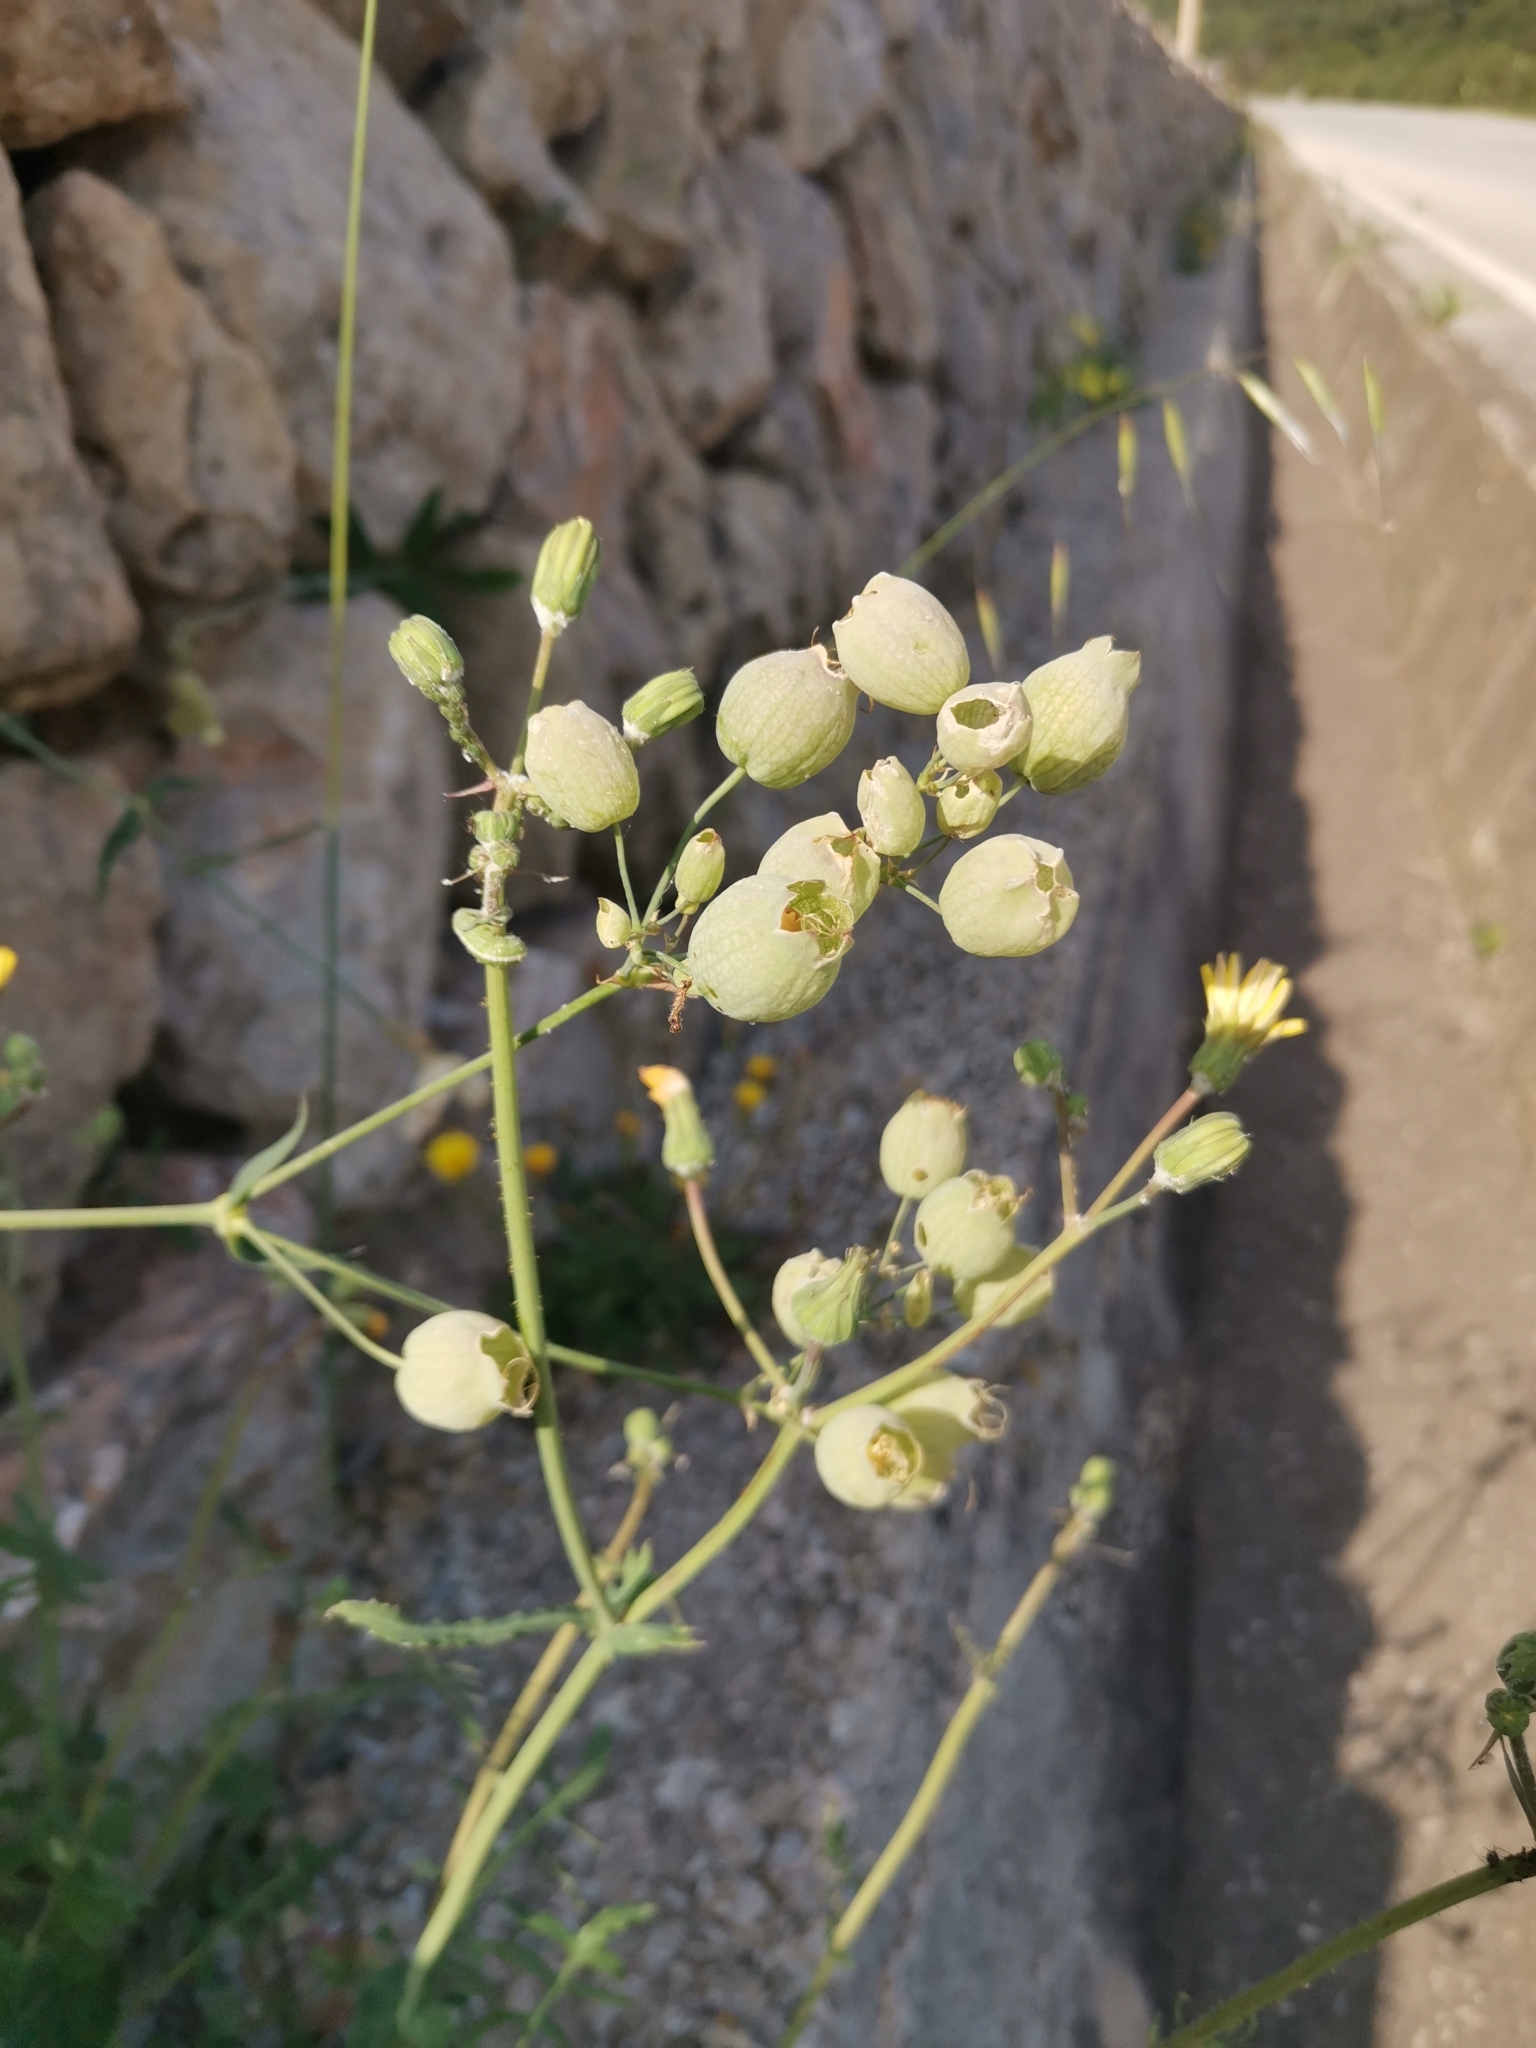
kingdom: Plantae
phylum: Tracheophyta
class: Magnoliopsida
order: Caryophyllales
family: Caryophyllaceae
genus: Silene
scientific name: Silene vulgaris
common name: Bladder campion
